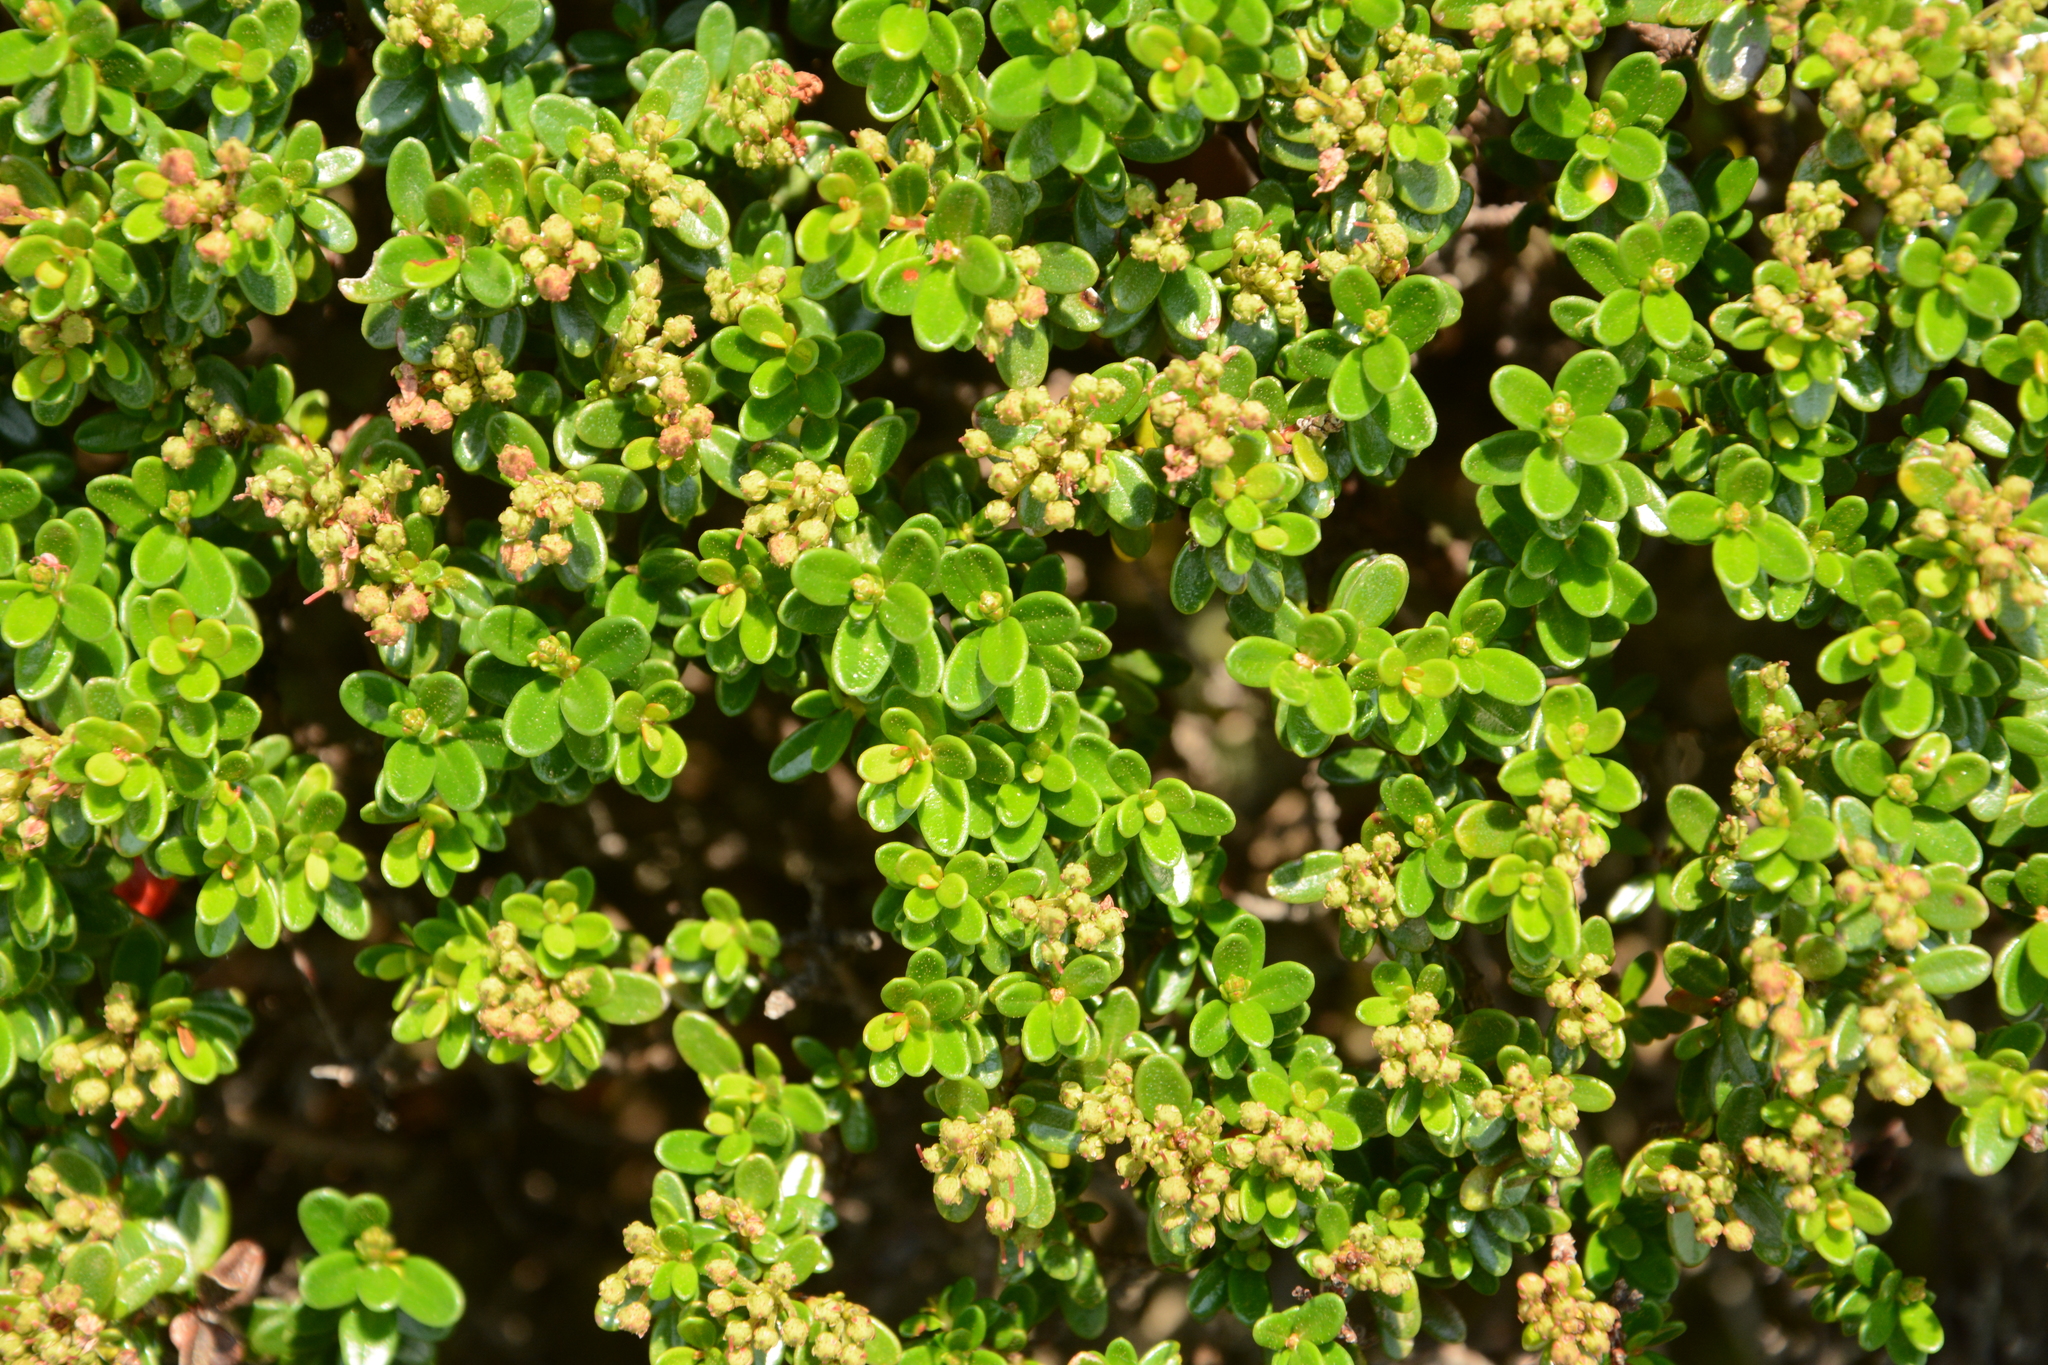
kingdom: Plantae
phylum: Tracheophyta
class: Magnoliopsida
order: Ericales
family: Ericaceae
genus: Kalmia
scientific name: Kalmia buxifolia
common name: Sandmyrtle
